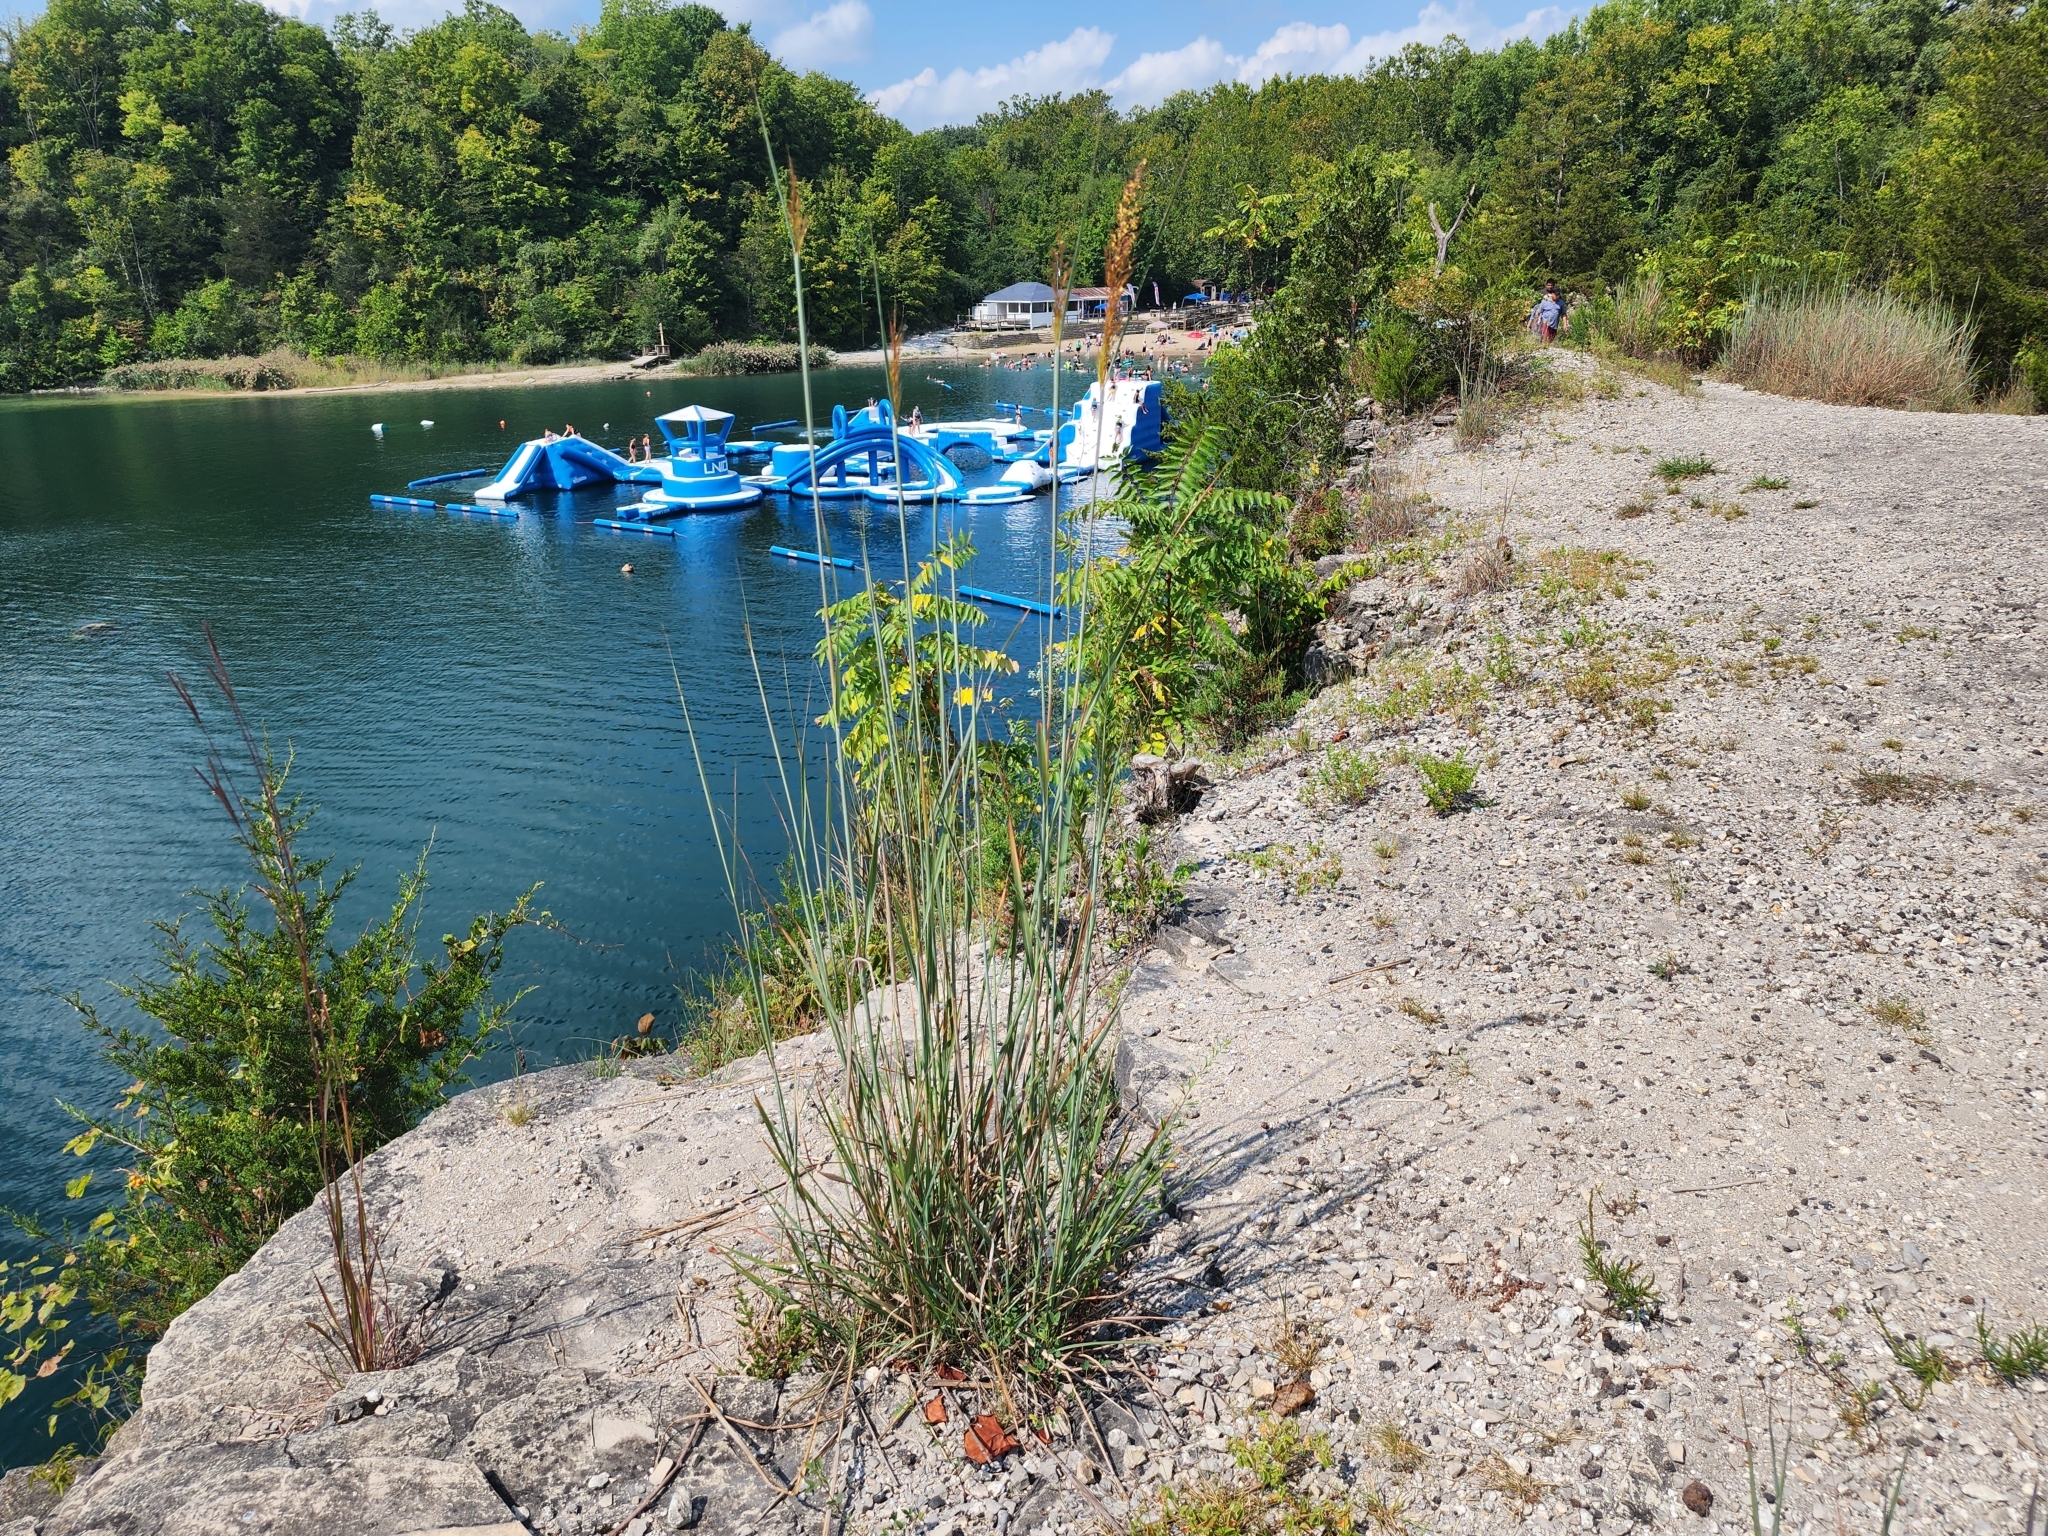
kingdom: Plantae
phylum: Tracheophyta
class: Liliopsida
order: Poales
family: Poaceae
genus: Sorghastrum
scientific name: Sorghastrum nutans
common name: Indian grass
